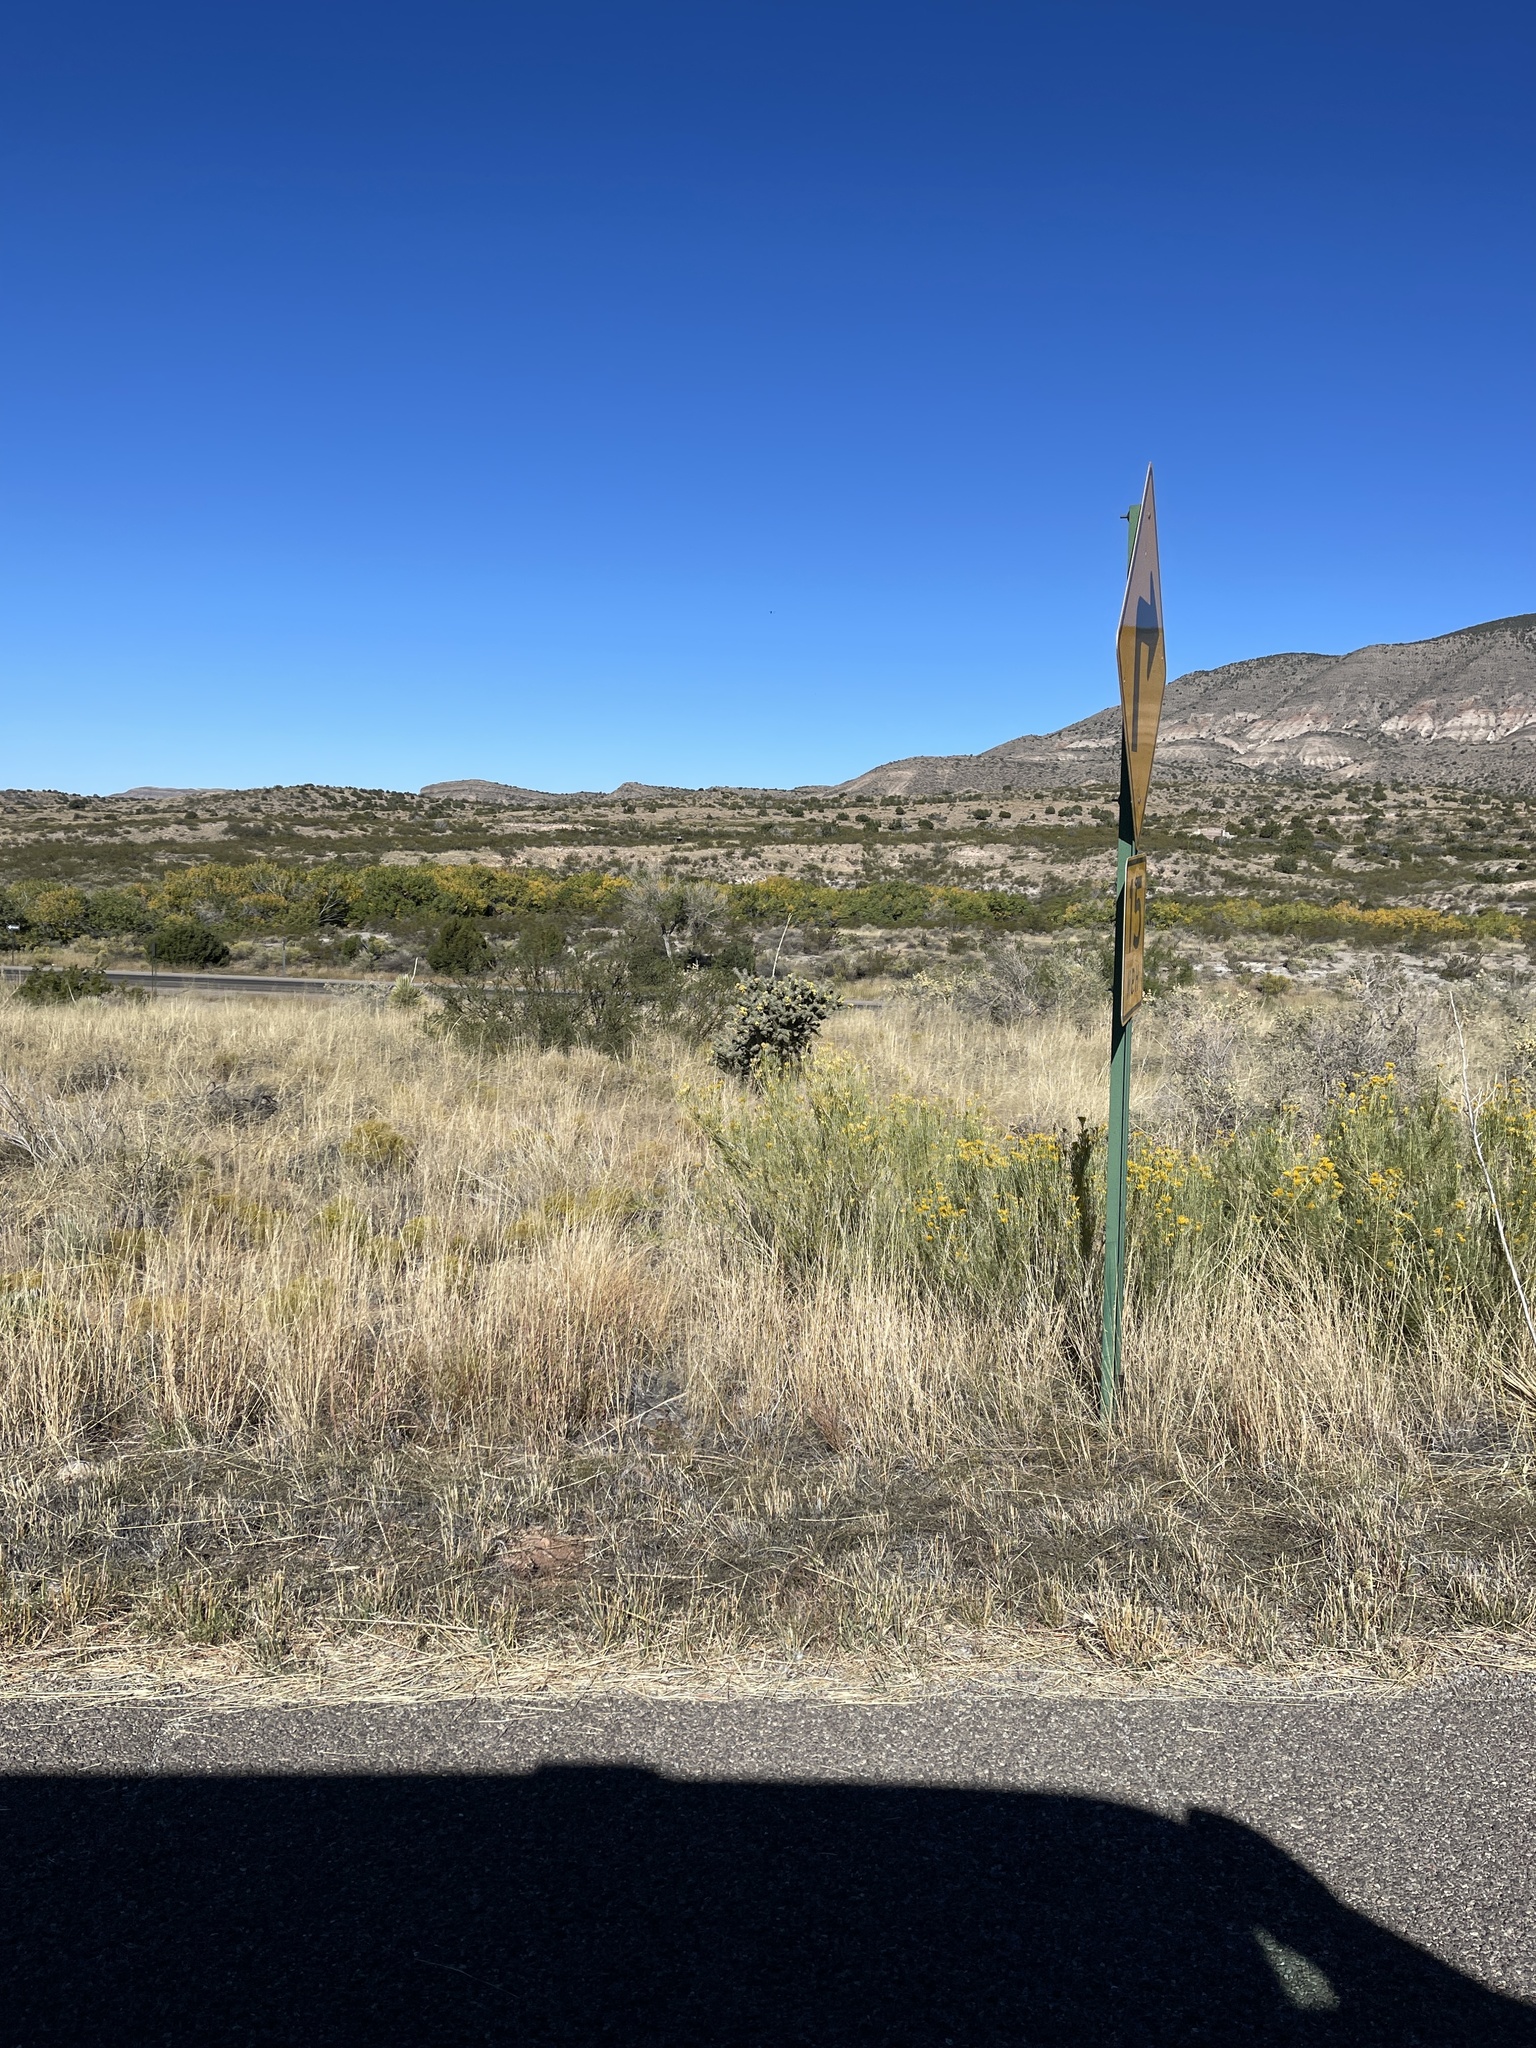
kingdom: Plantae
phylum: Tracheophyta
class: Magnoliopsida
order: Caryophyllales
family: Cactaceae
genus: Cylindropuntia
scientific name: Cylindropuntia imbricata
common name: Candelabrum cactus
